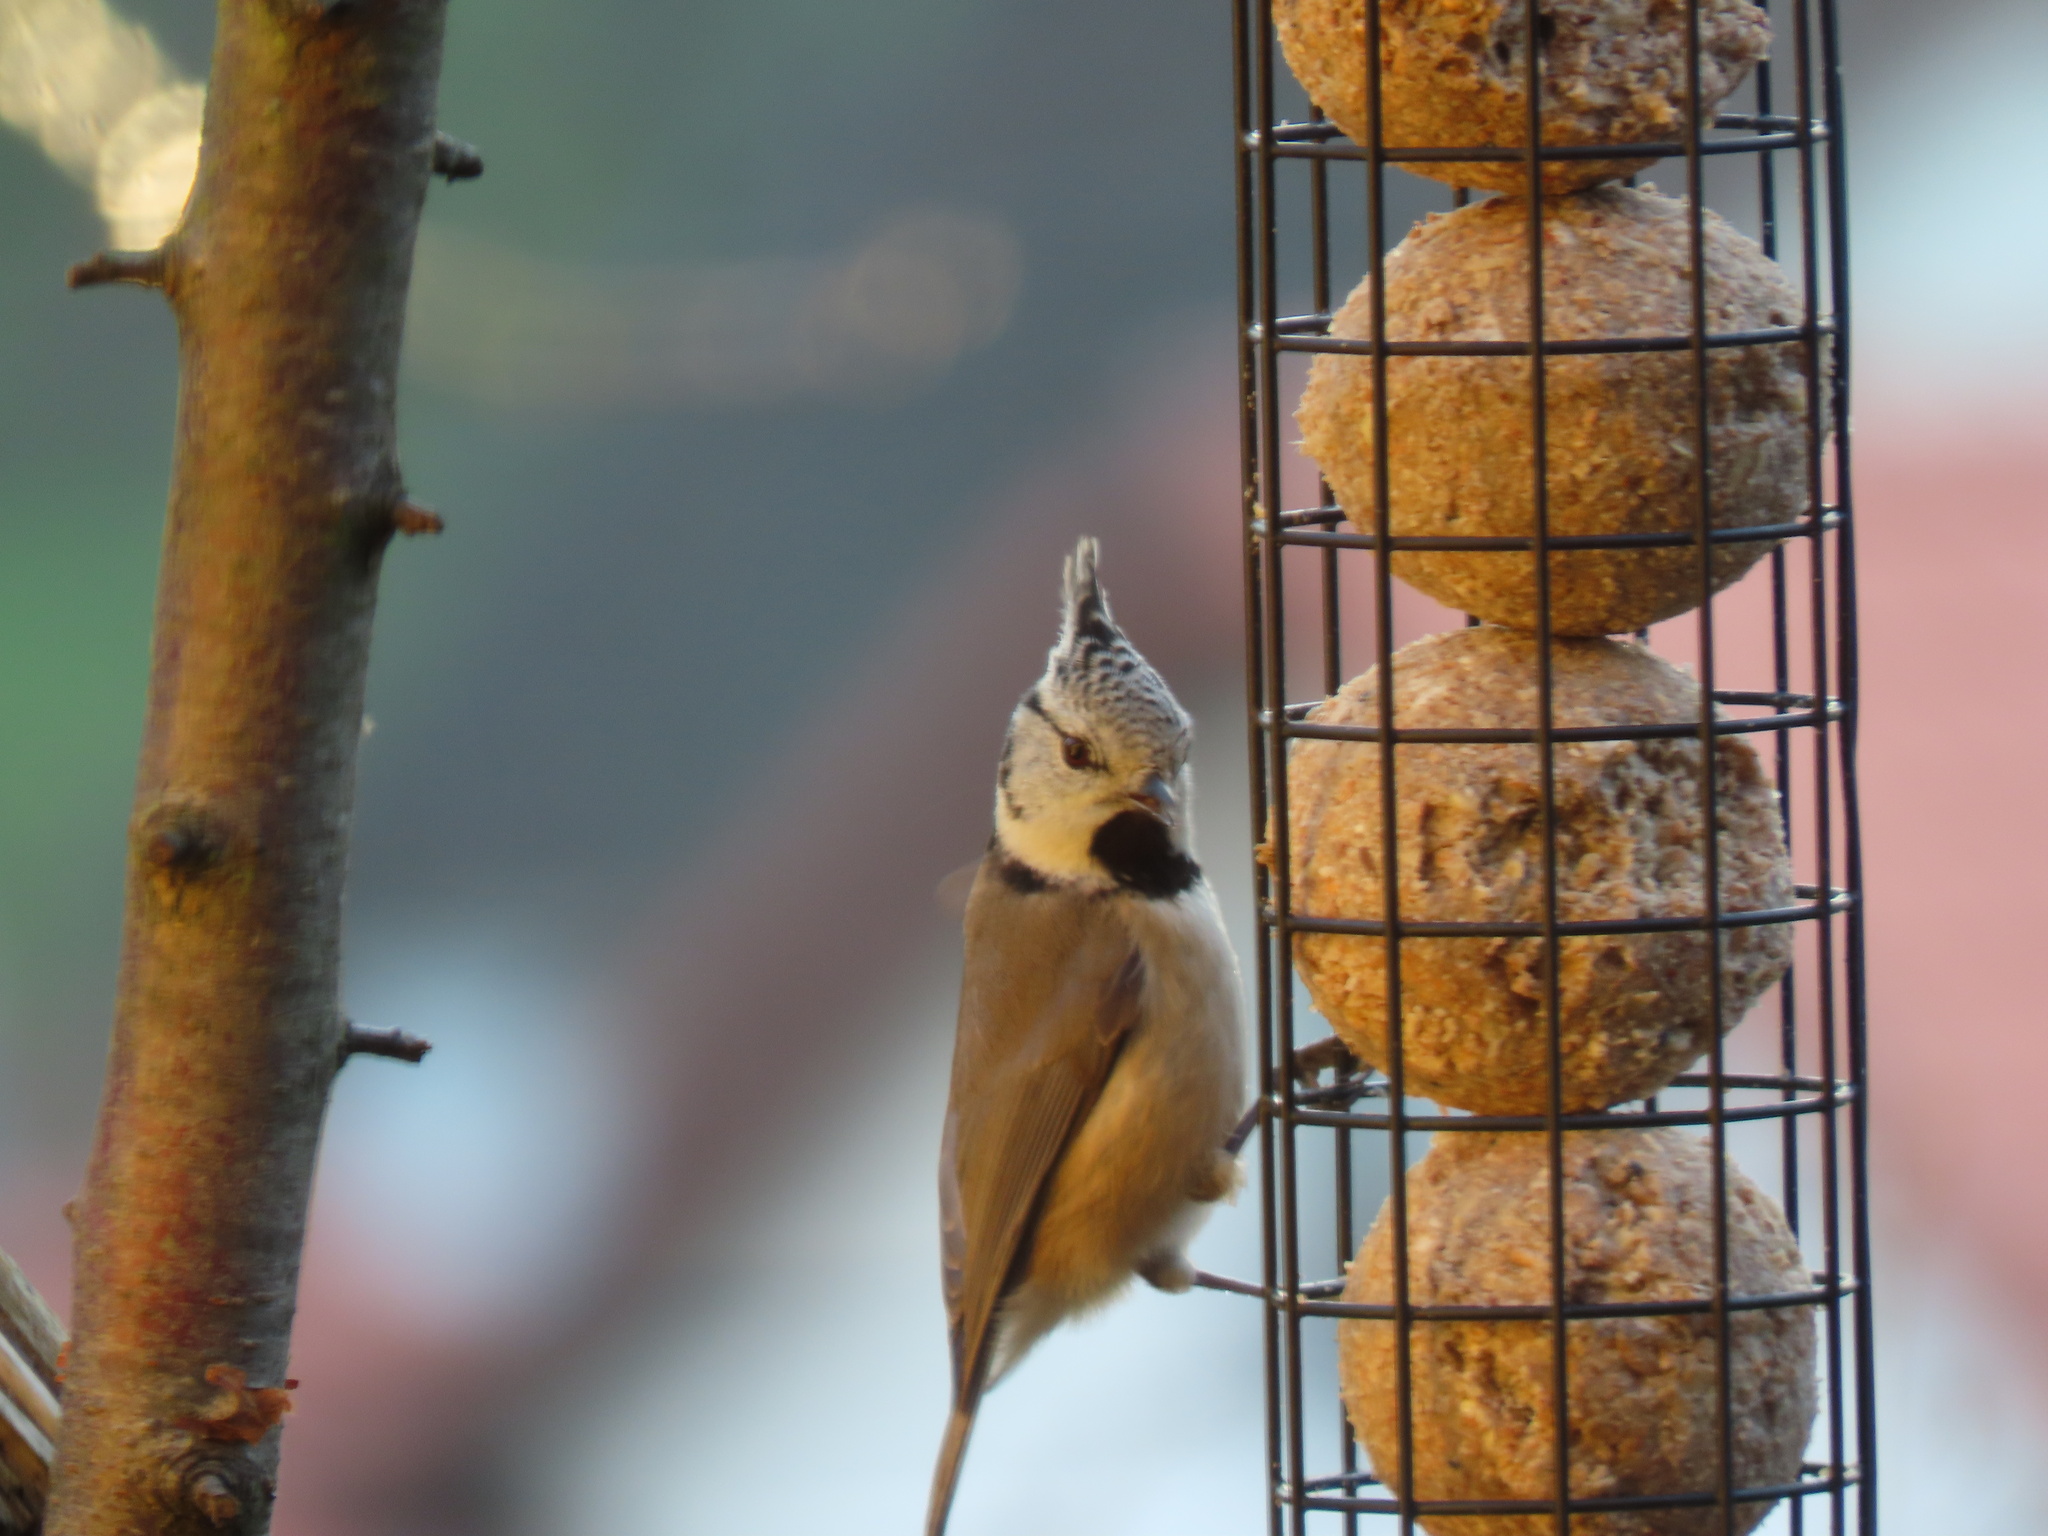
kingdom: Animalia
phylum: Chordata
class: Aves
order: Passeriformes
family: Paridae
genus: Lophophanes
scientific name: Lophophanes cristatus
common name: European crested tit
